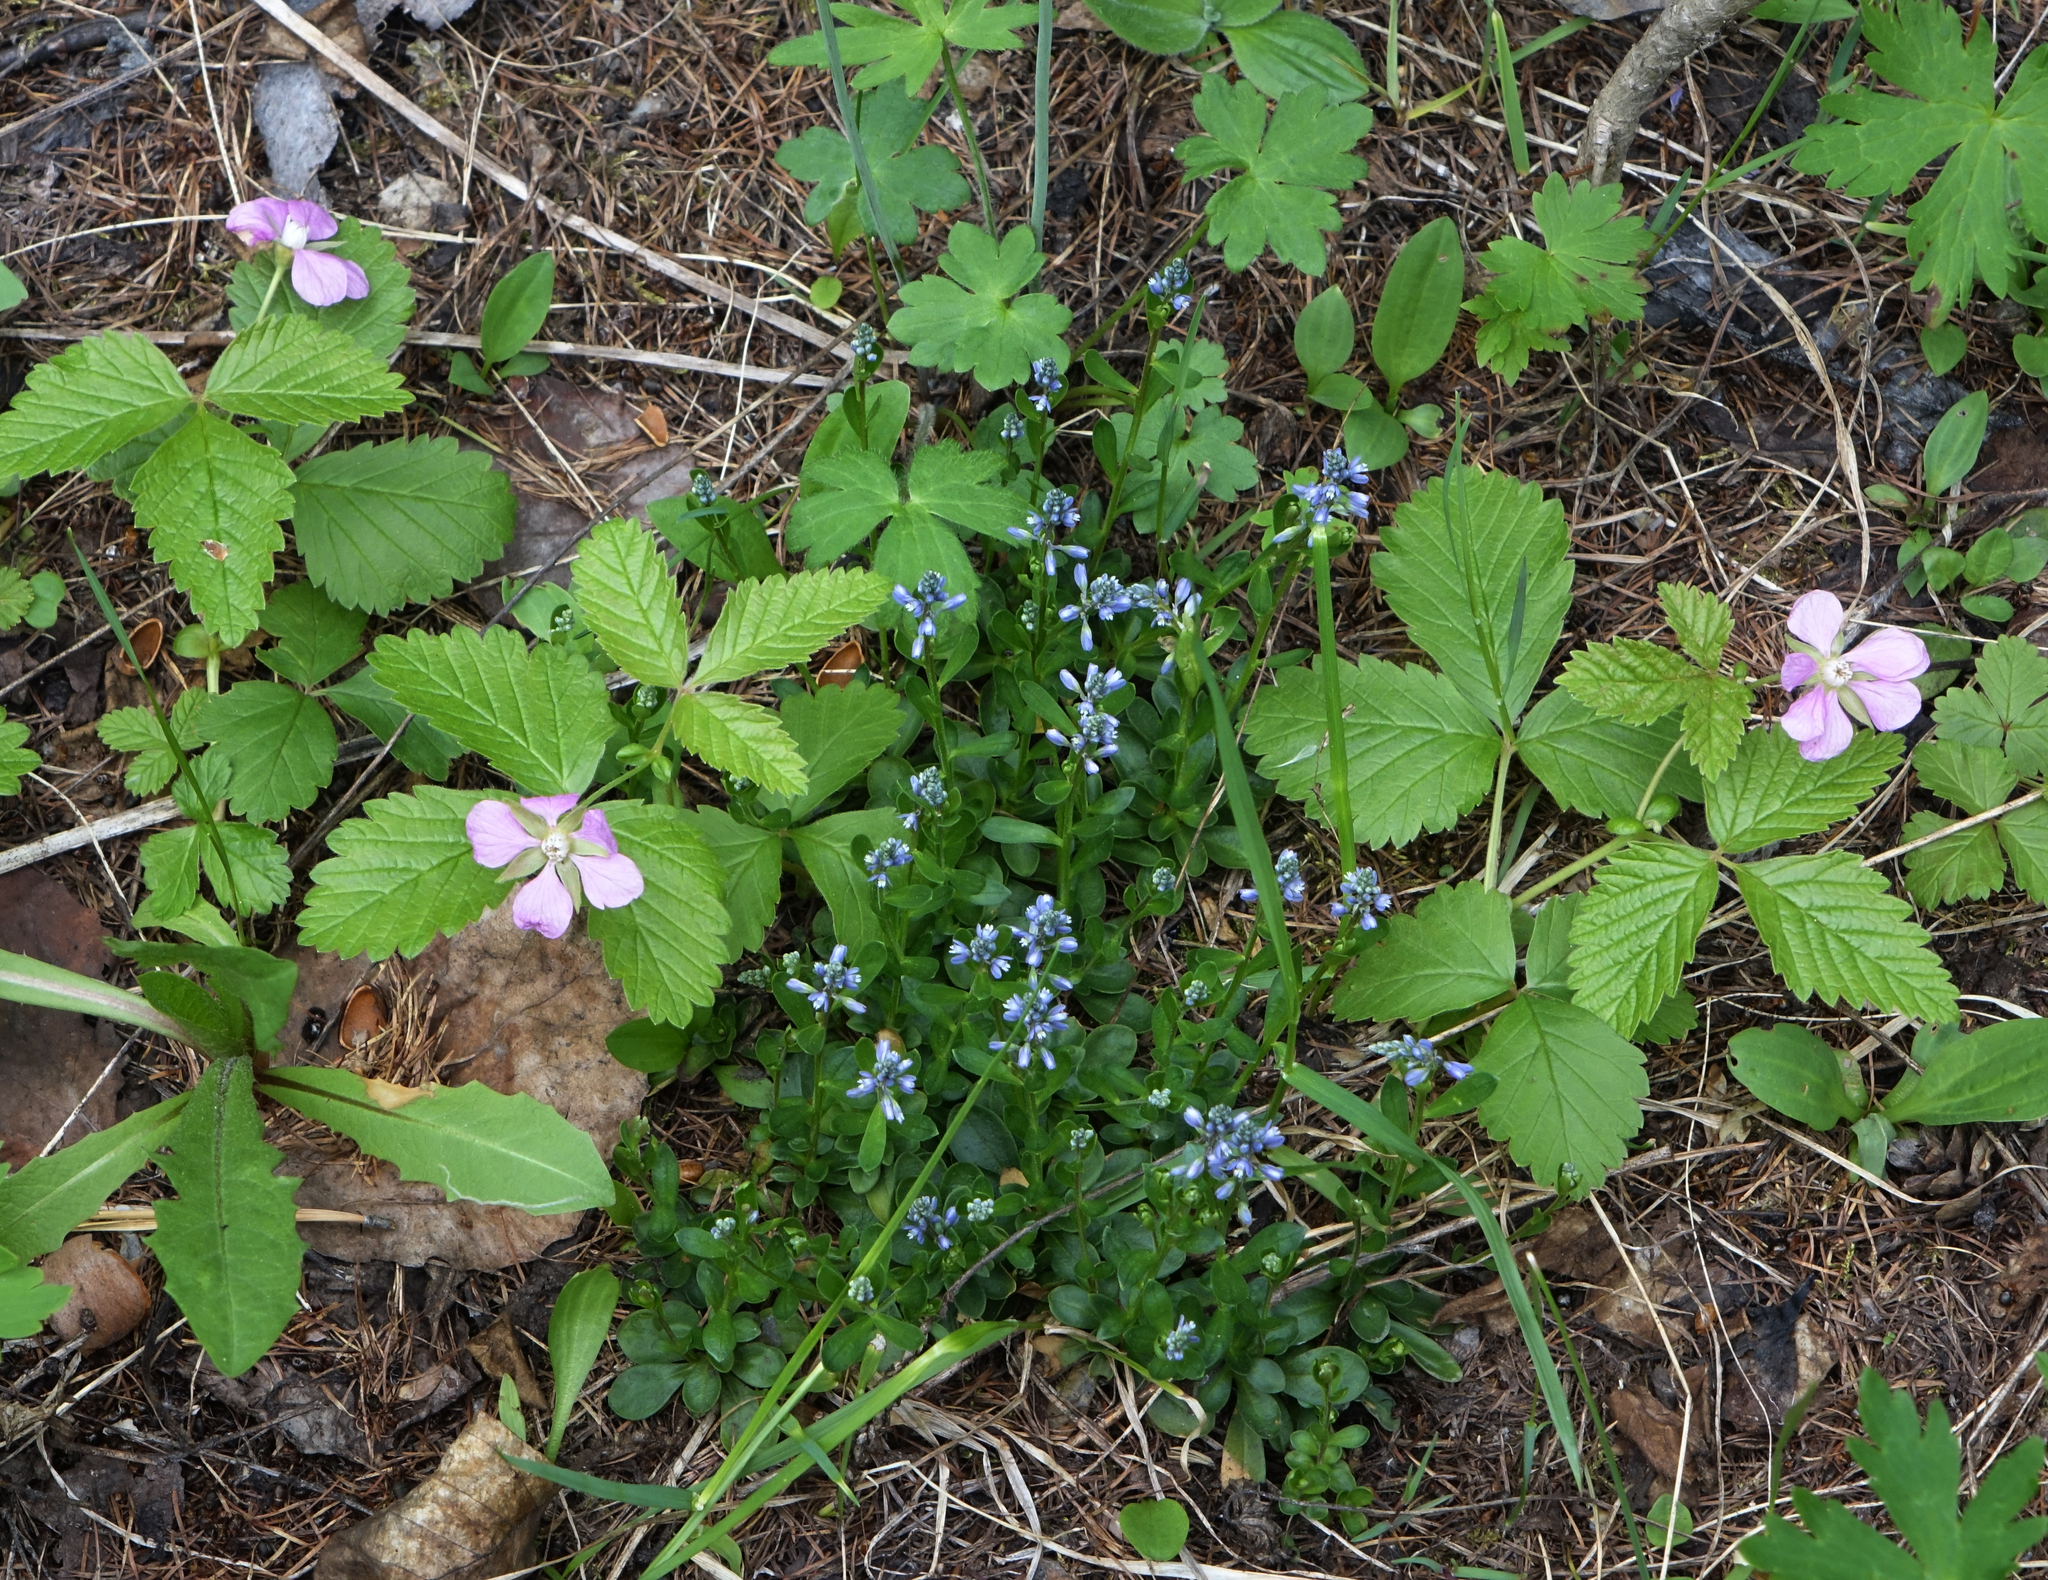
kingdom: Plantae
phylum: Tracheophyta
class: Magnoliopsida
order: Fabales
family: Polygalaceae
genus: Polygala
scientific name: Polygala amarella
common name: Dwarf milkwort
